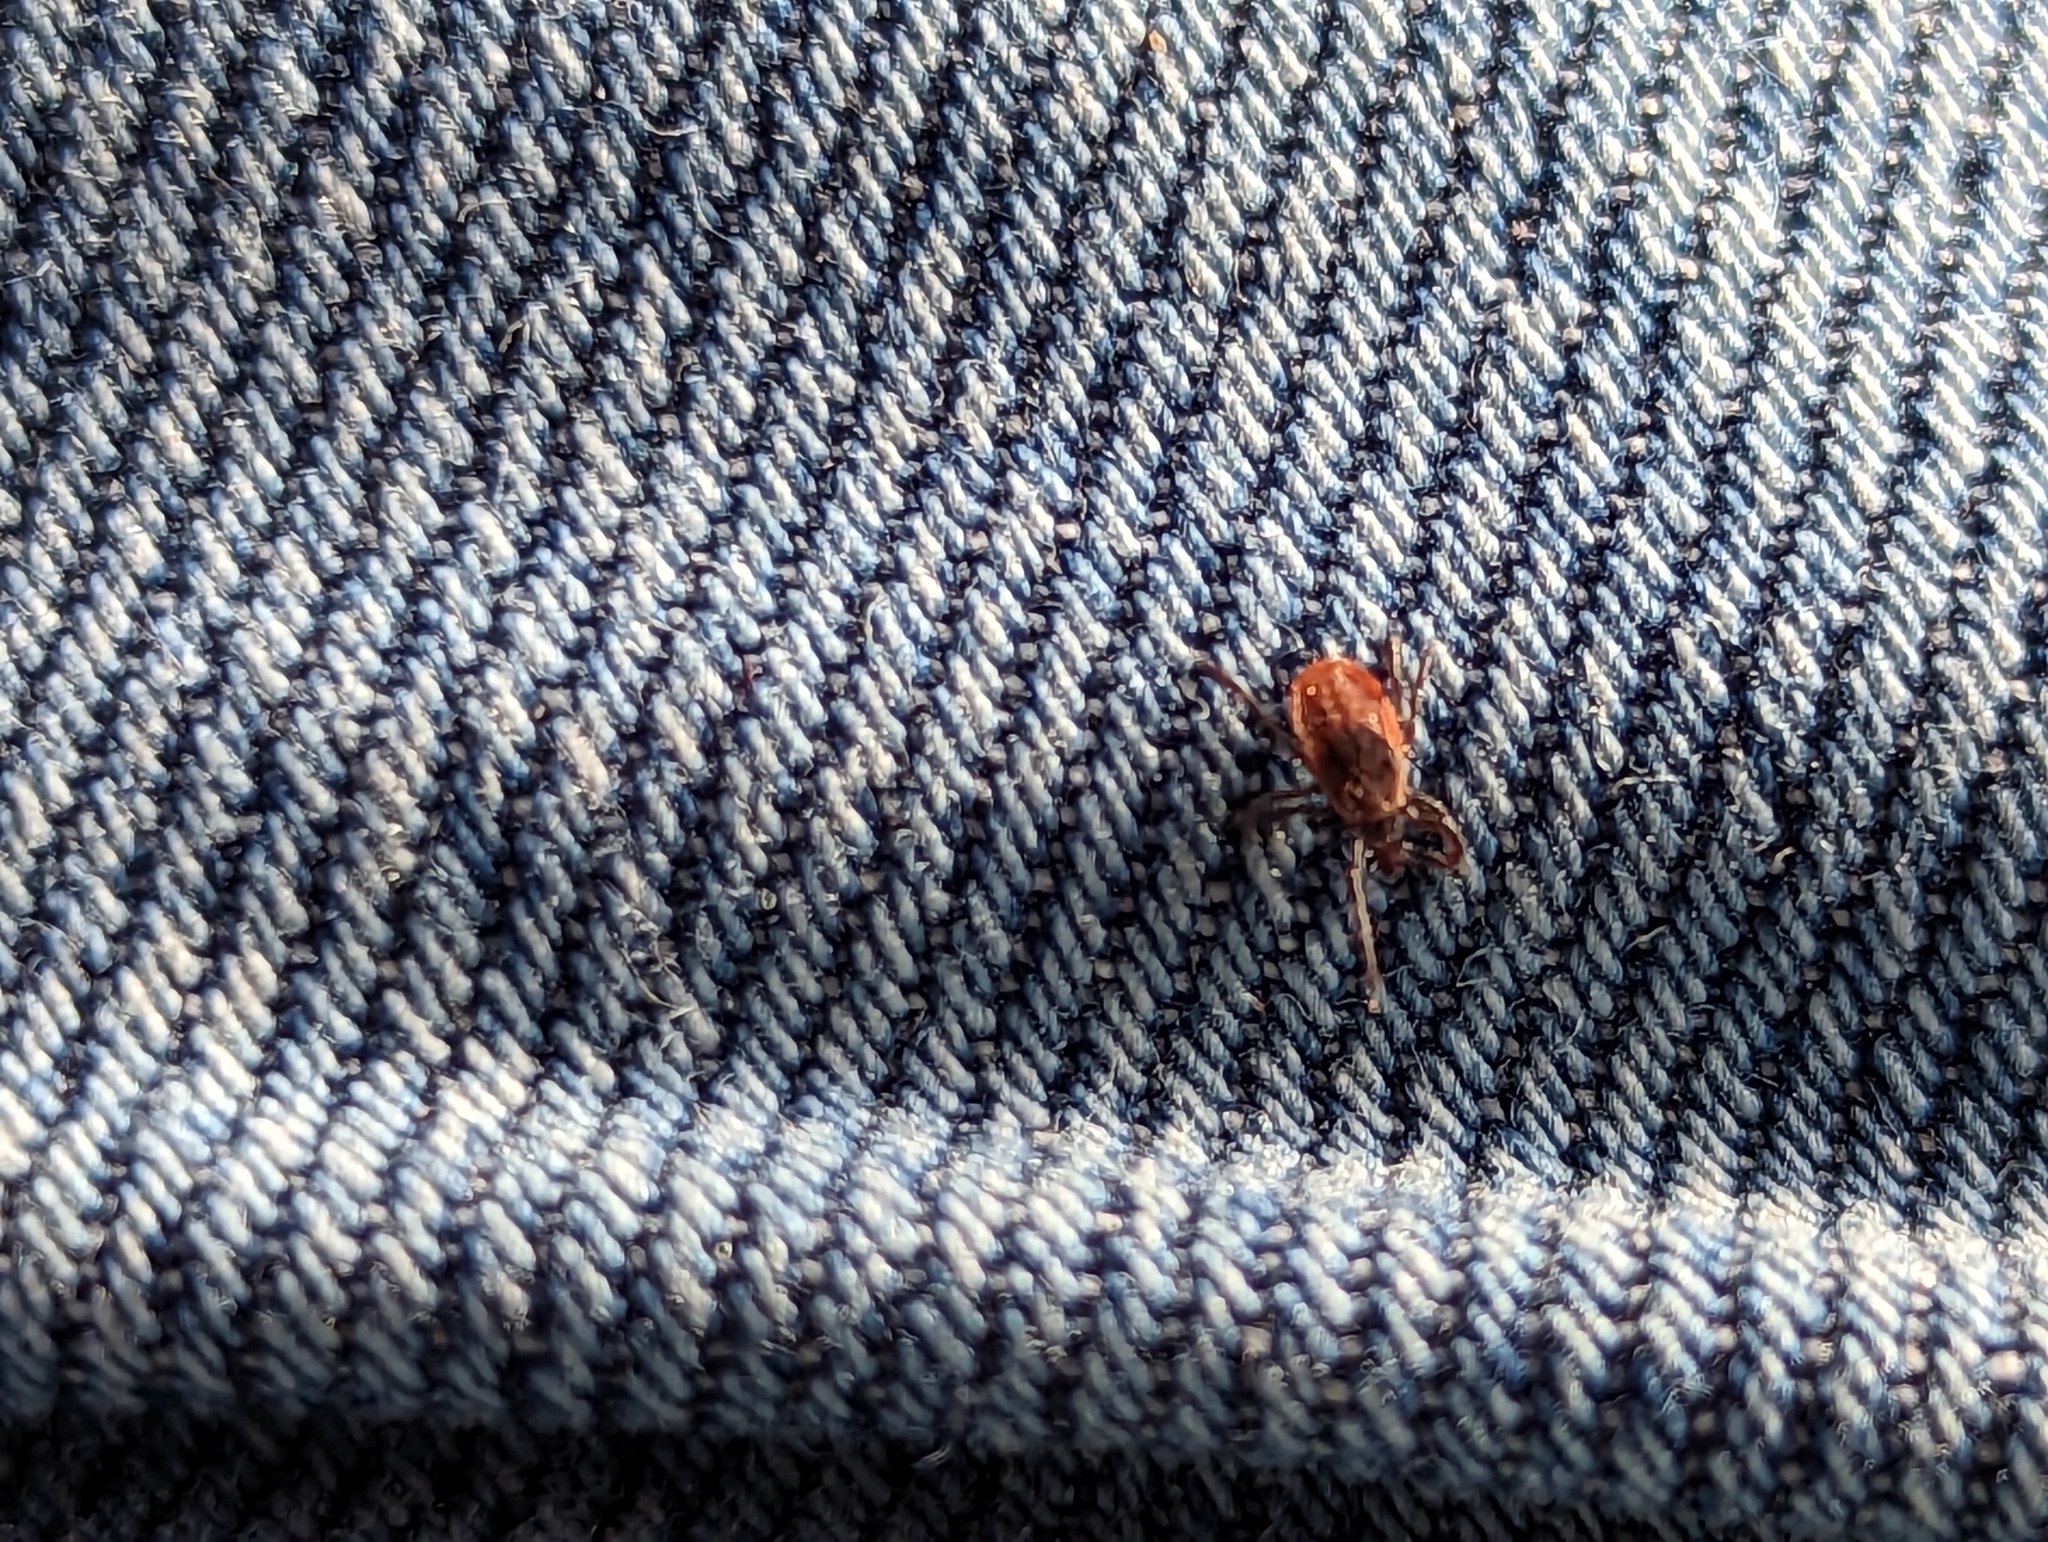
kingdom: Animalia
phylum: Arthropoda
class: Arachnida
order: Ixodida
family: Ixodidae
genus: Ixodes
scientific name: Ixodes scapularis
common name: Black legged tick
